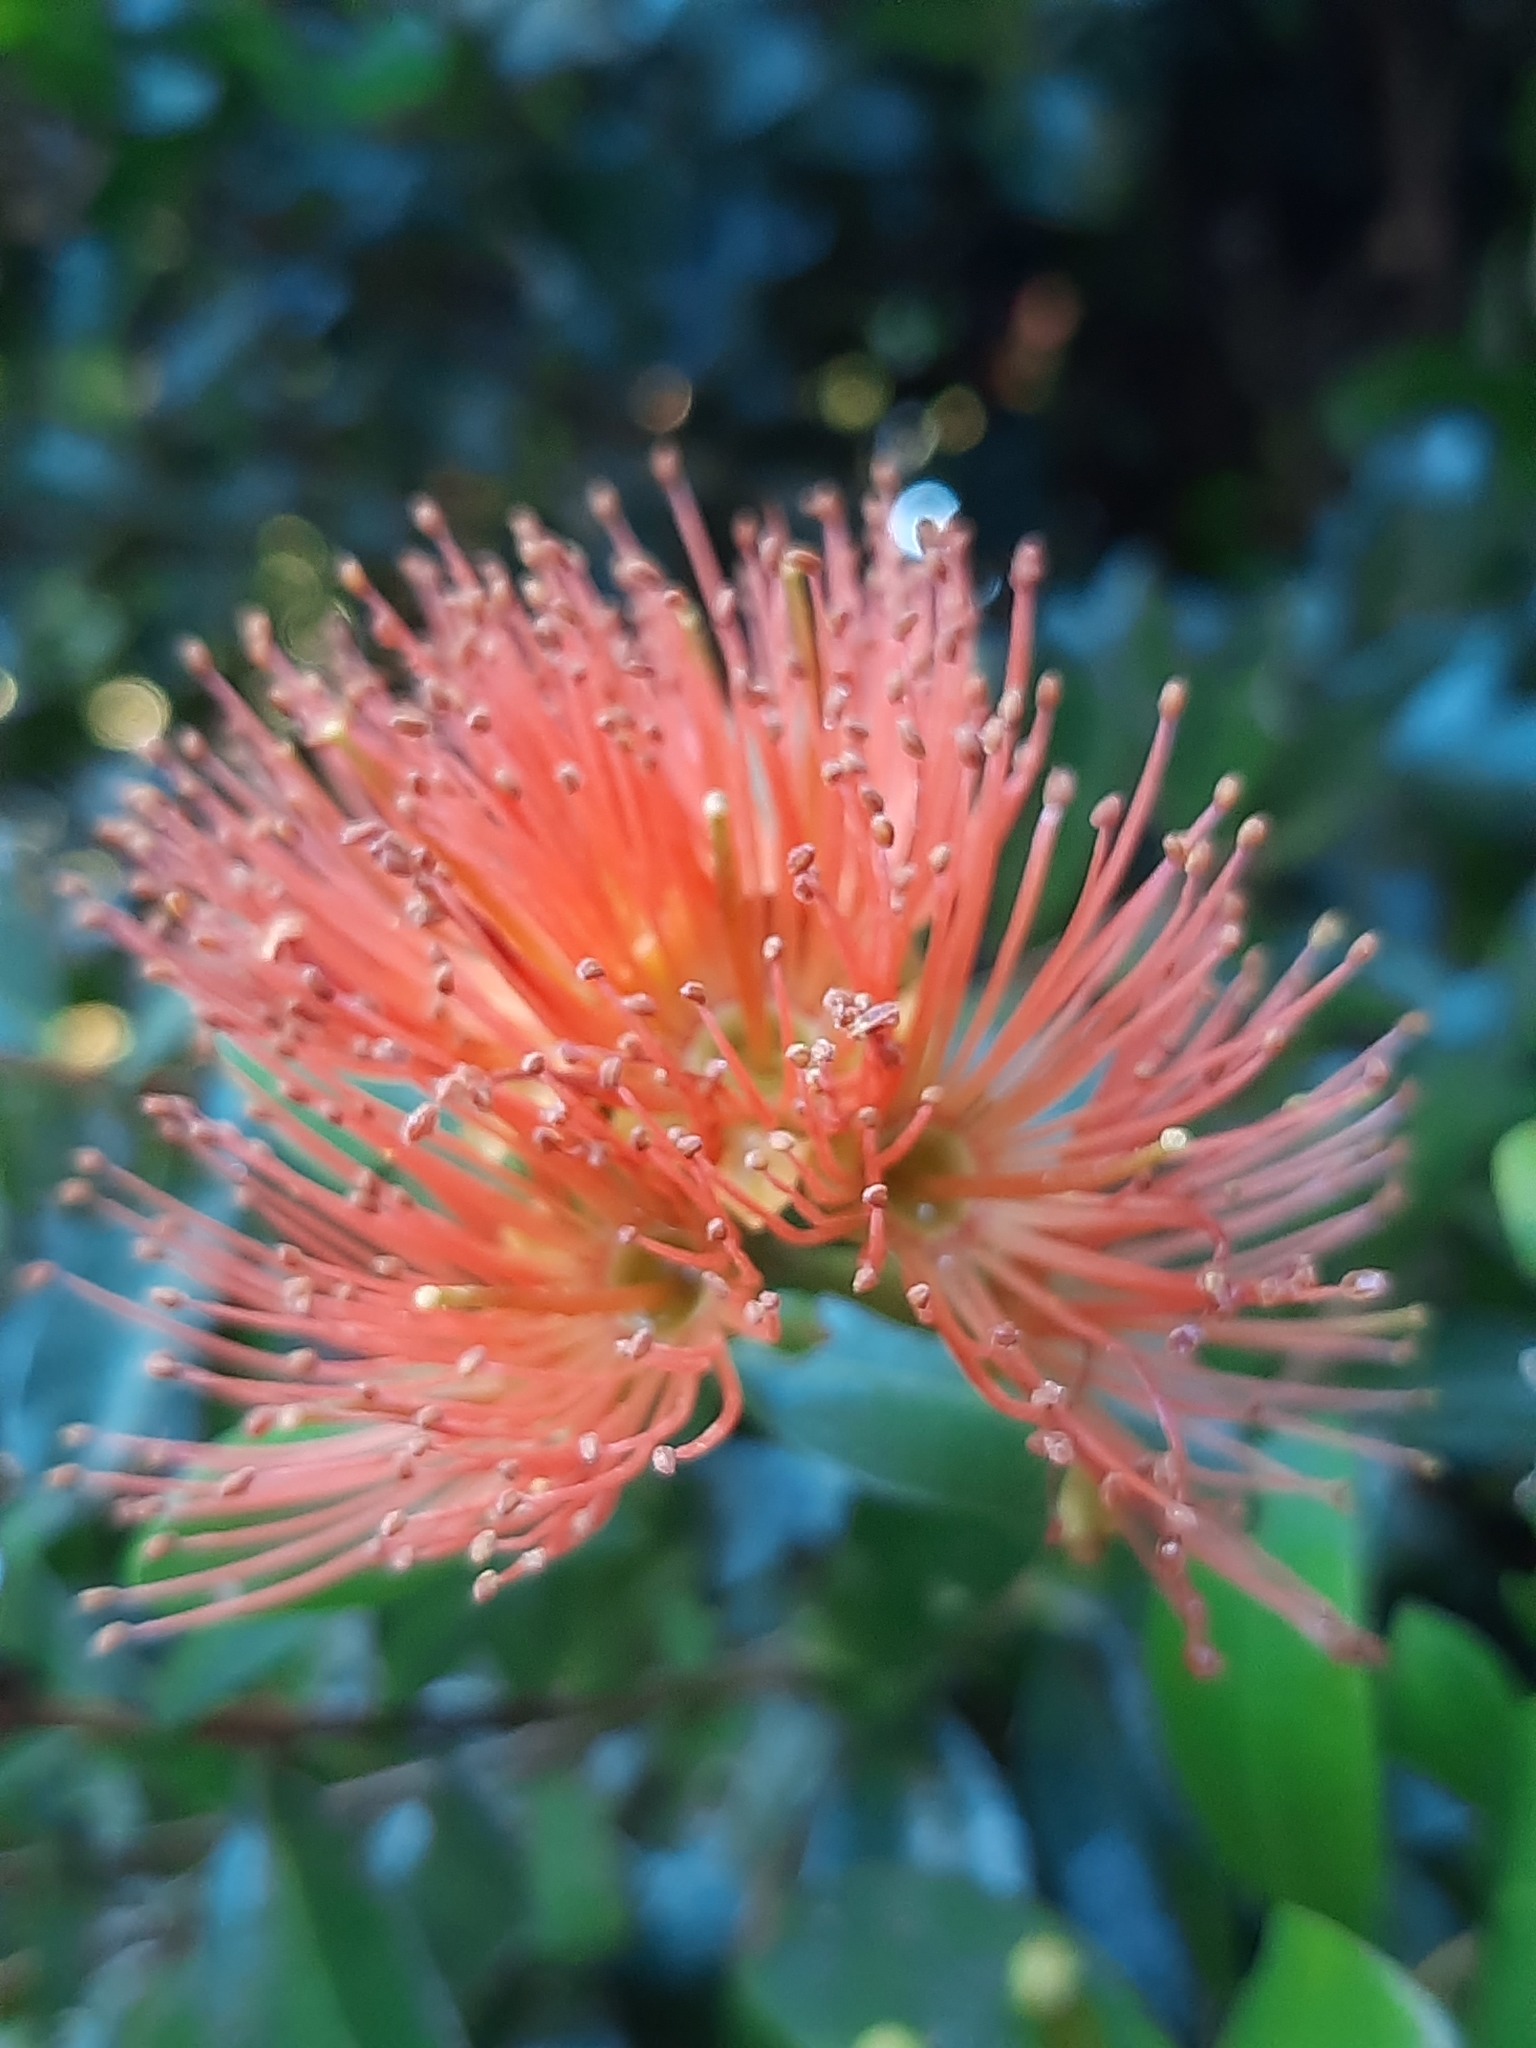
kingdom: Plantae
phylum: Tracheophyta
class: Magnoliopsida
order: Myrtales
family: Myrtaceae
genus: Metrosideros
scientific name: Metrosideros fulgens
